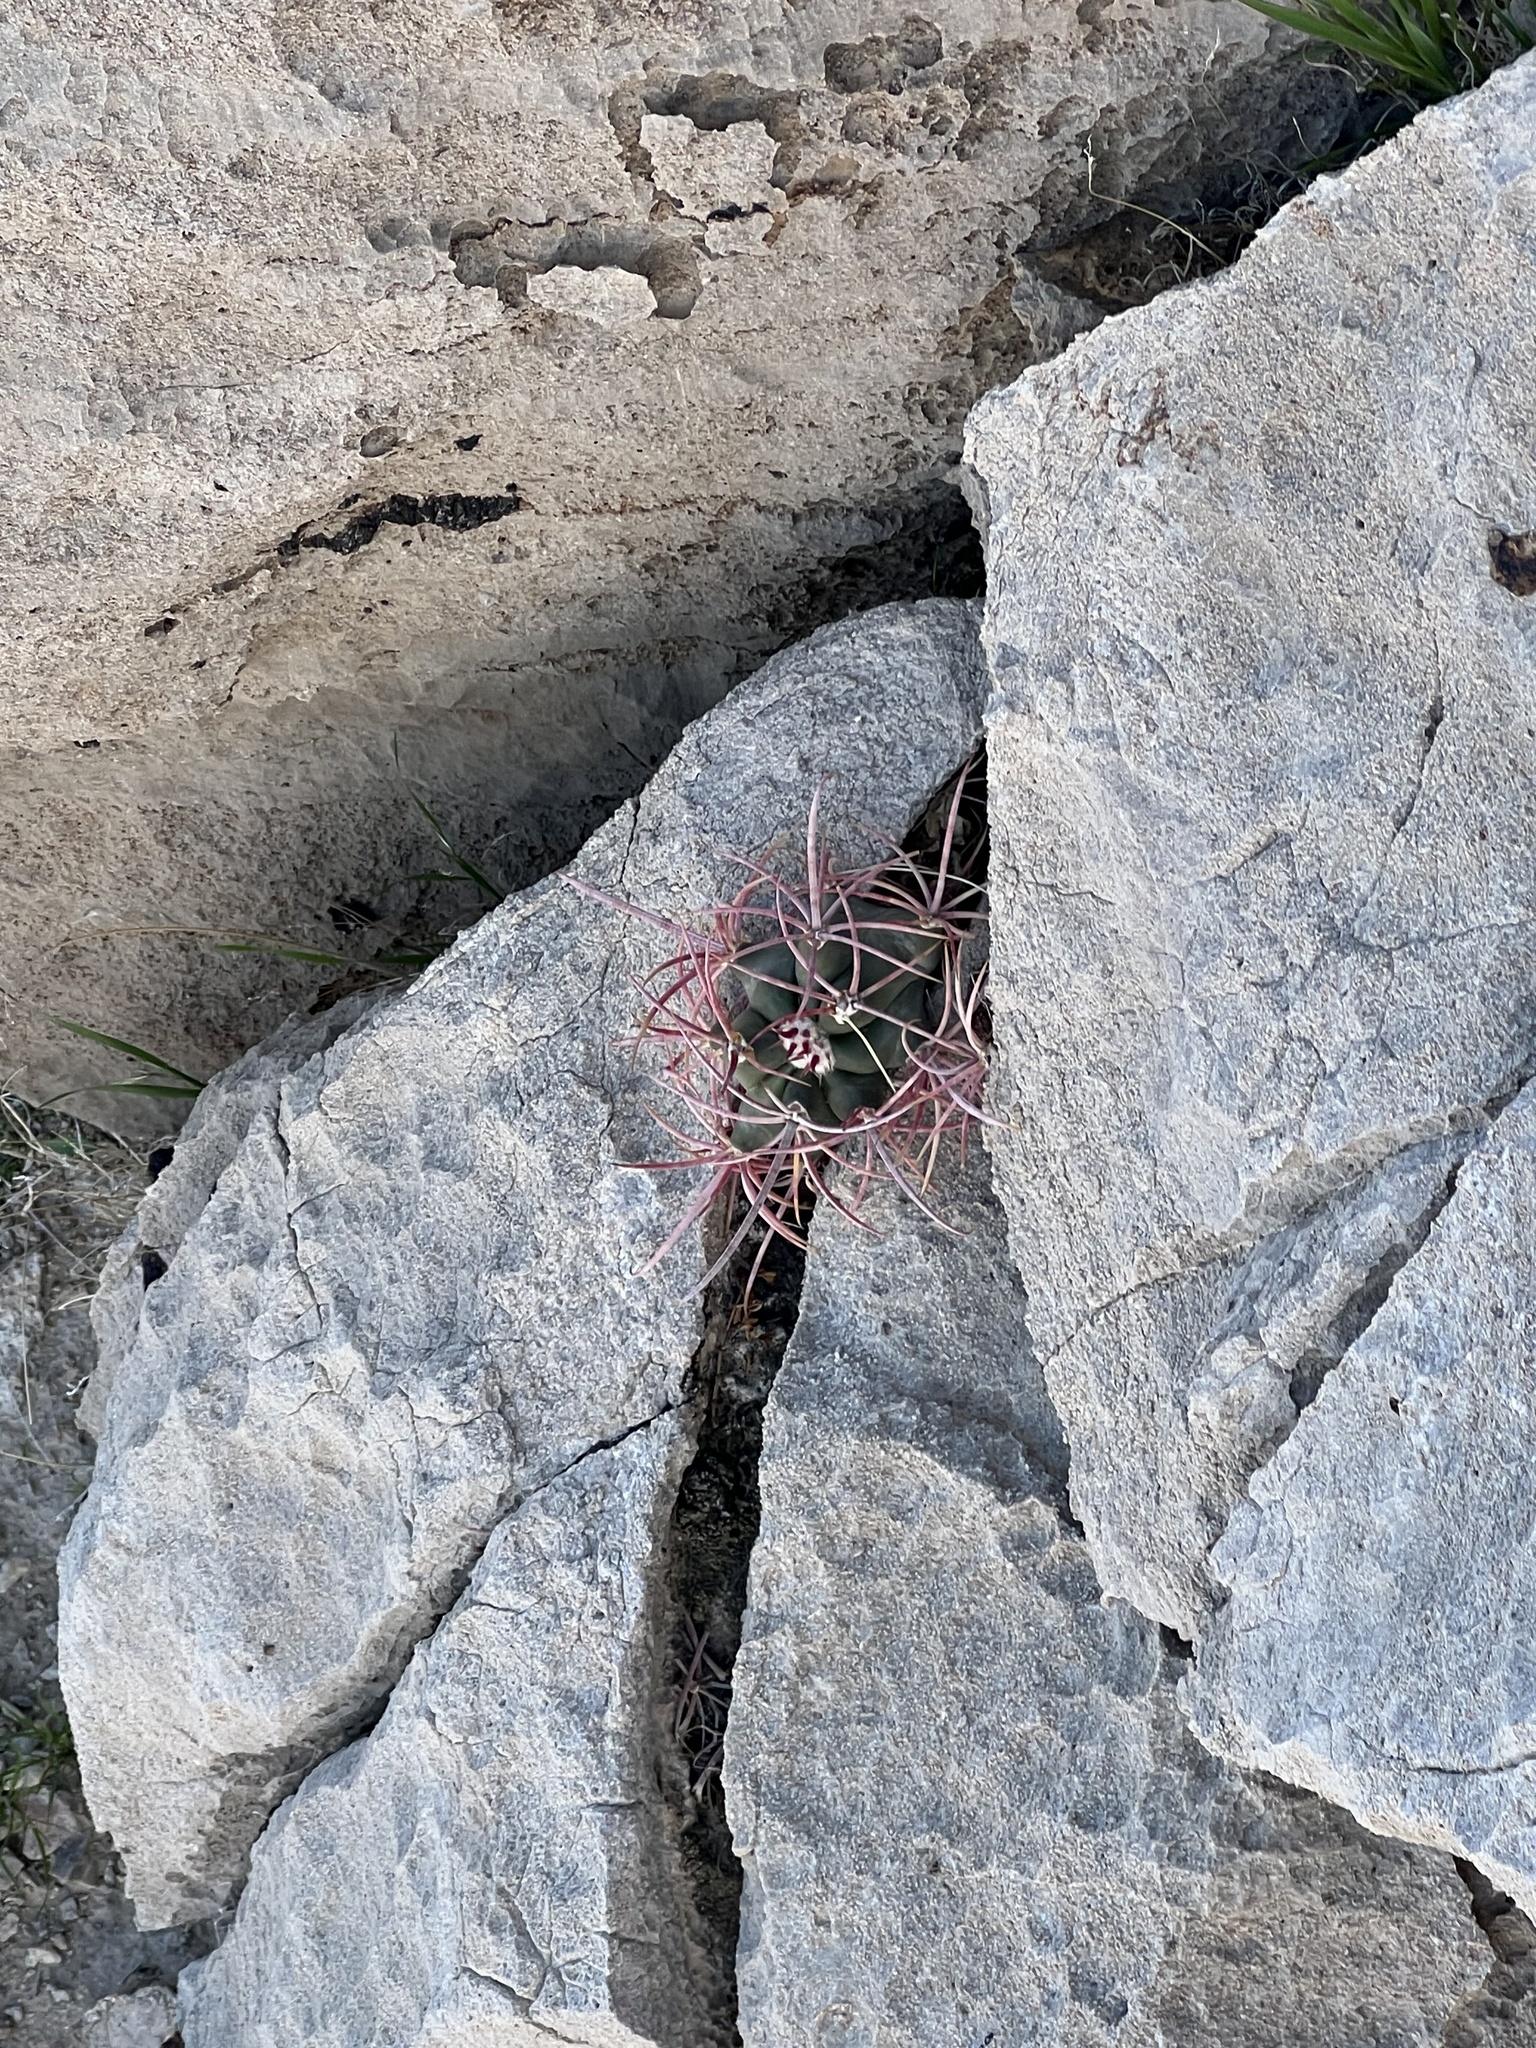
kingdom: Plantae
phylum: Tracheophyta
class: Magnoliopsida
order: Caryophyllales
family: Cactaceae
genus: Ferocactus
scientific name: Ferocactus cylindraceus
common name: California barrel cactus
